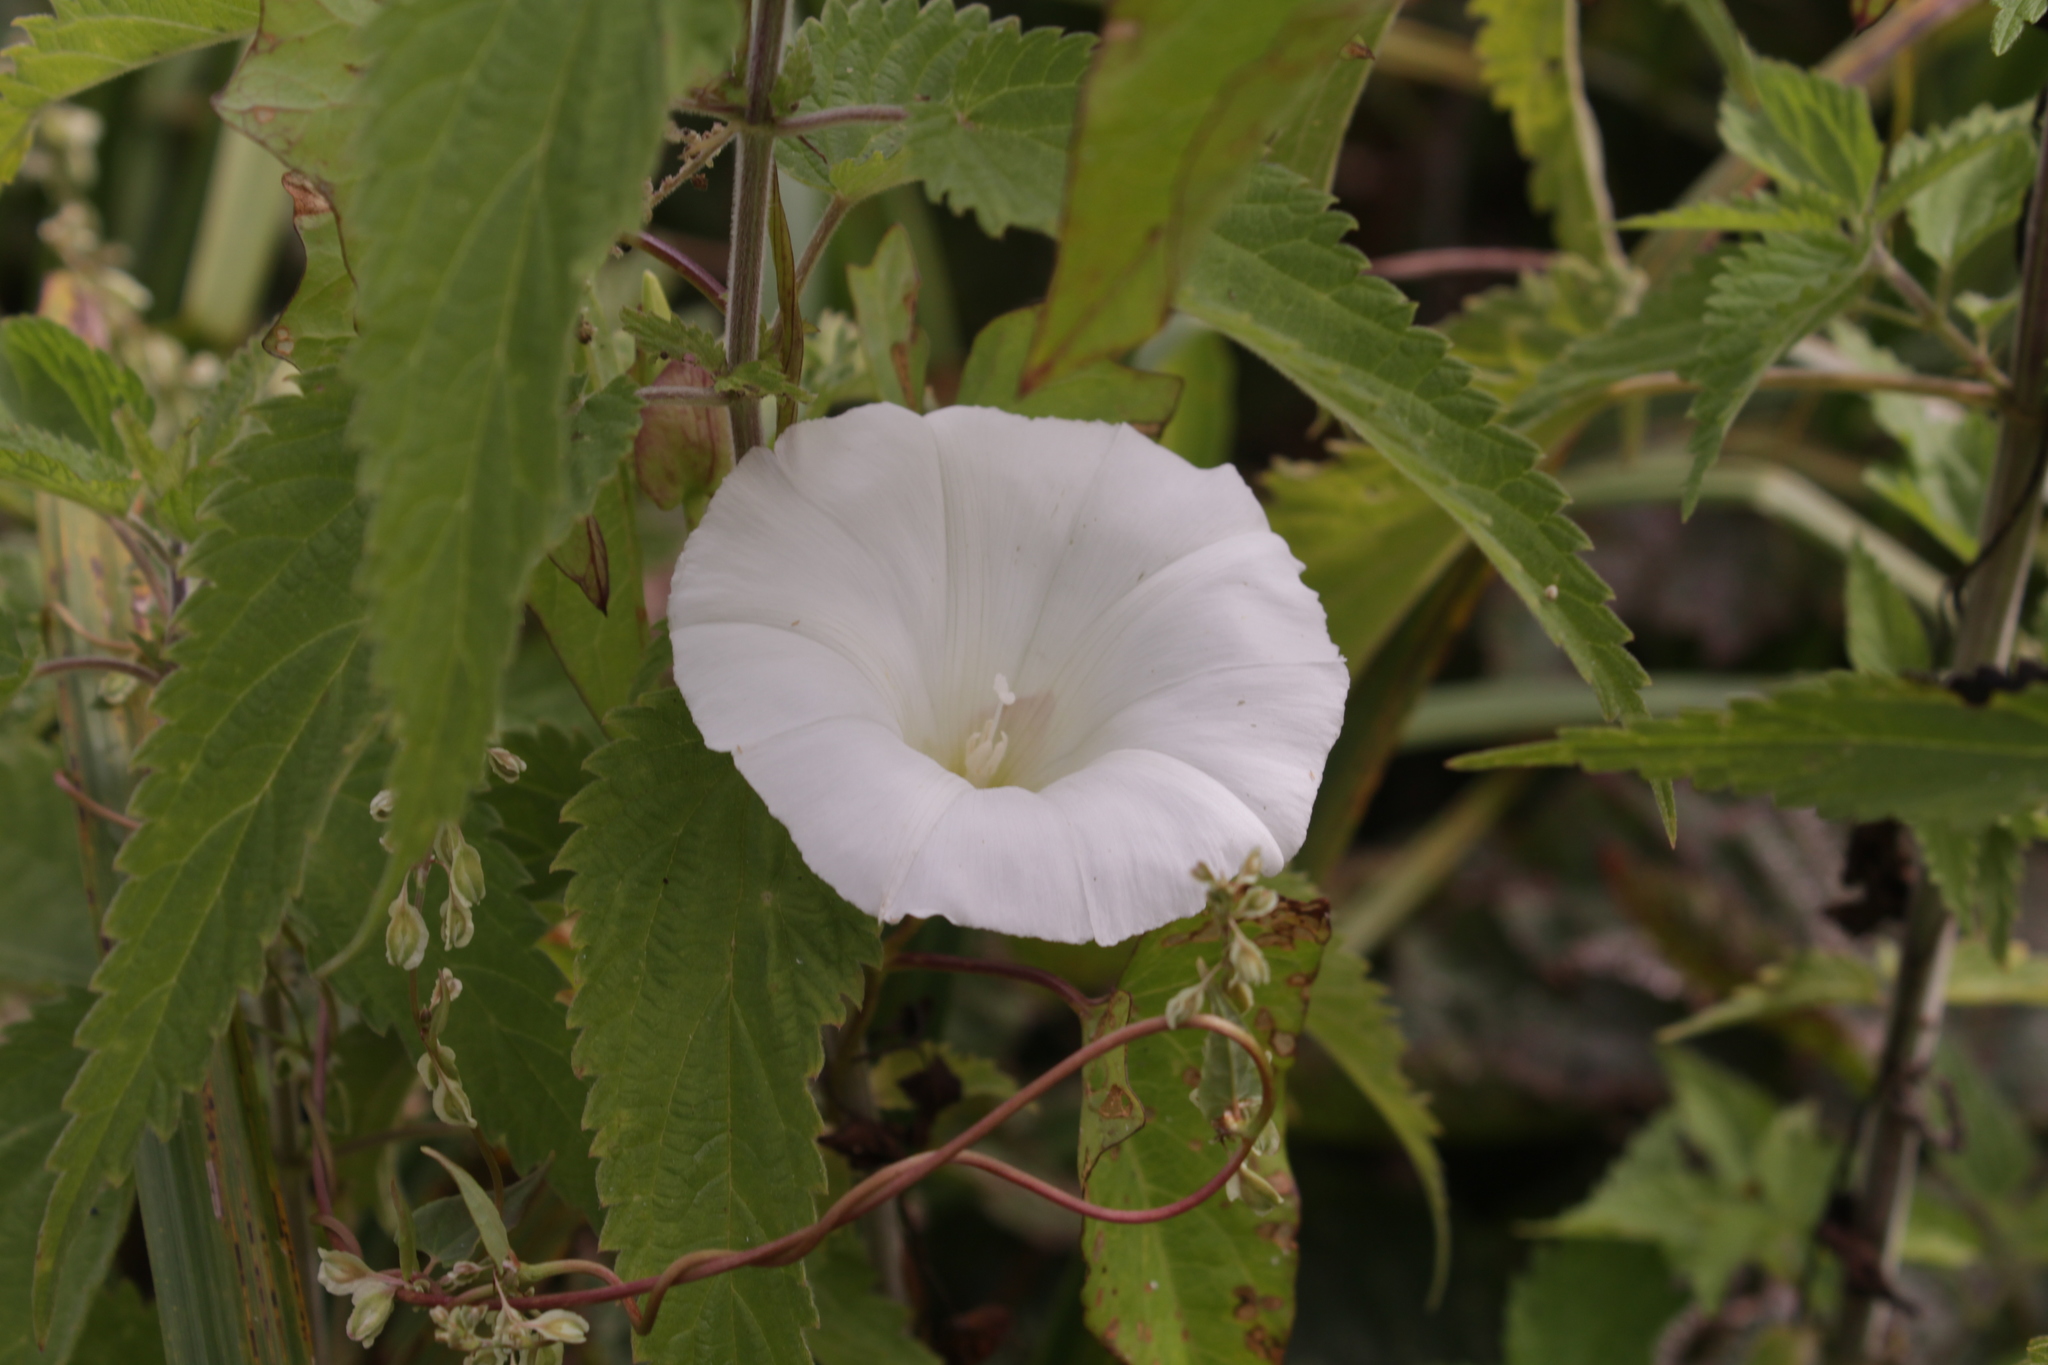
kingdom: Plantae
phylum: Tracheophyta
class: Magnoliopsida
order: Solanales
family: Convolvulaceae
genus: Calystegia
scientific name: Calystegia sepium
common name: Hedge bindweed
